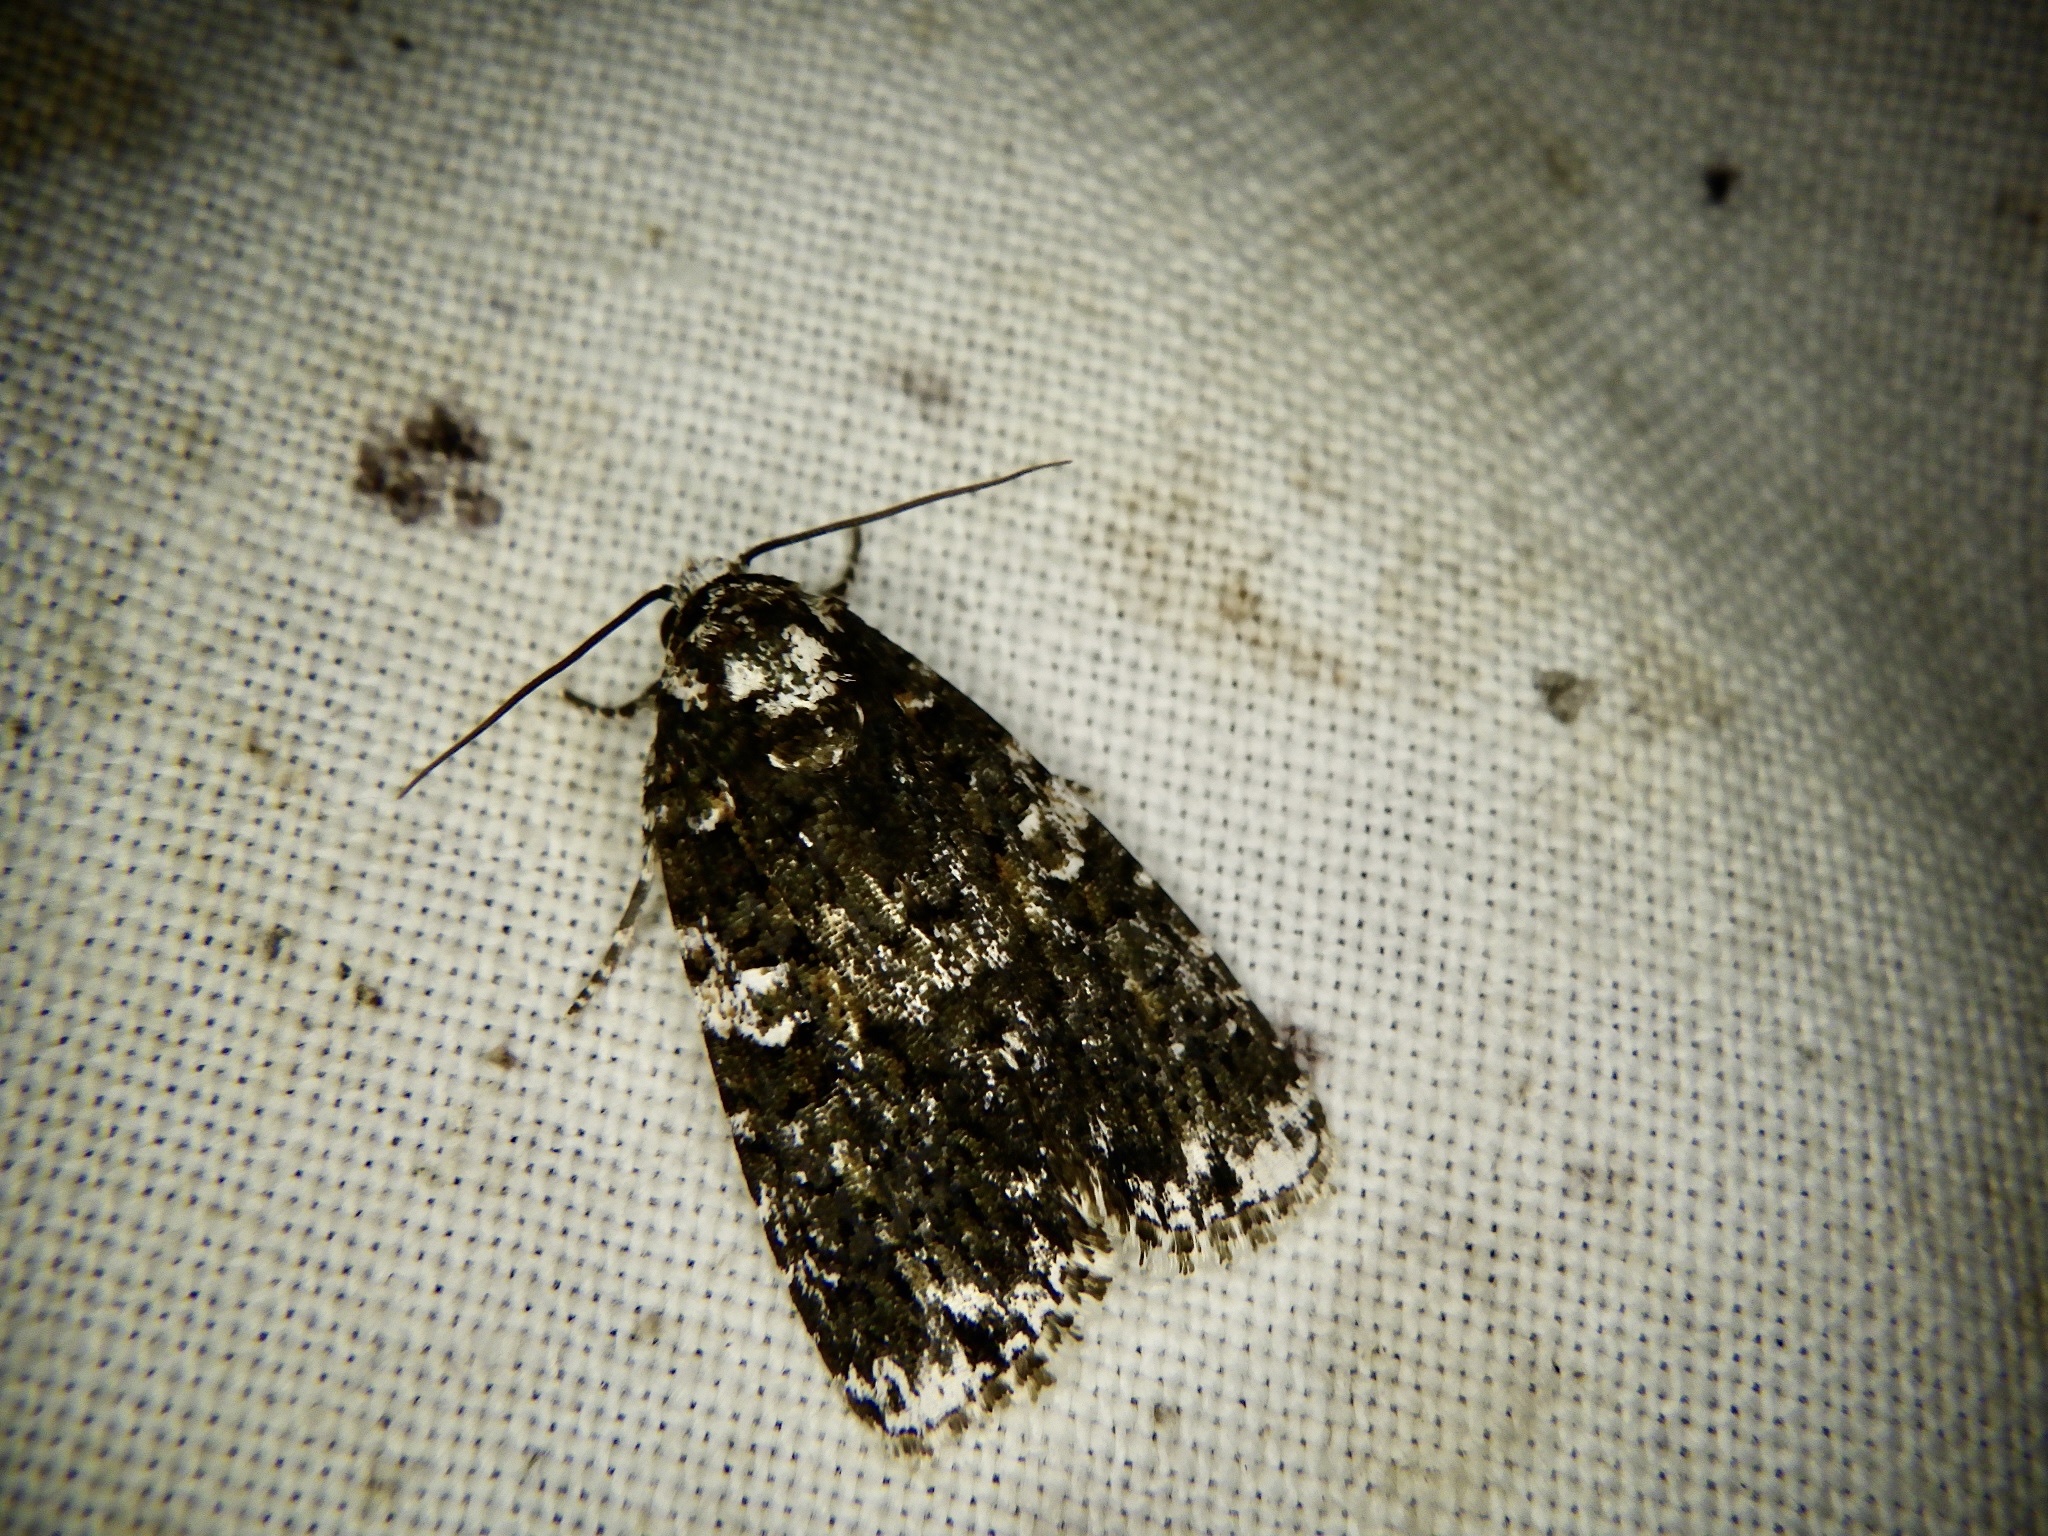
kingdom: Animalia
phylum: Arthropoda
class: Insecta
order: Lepidoptera
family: Noctuidae
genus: Narcotica
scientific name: Narcotica niveosparsa
